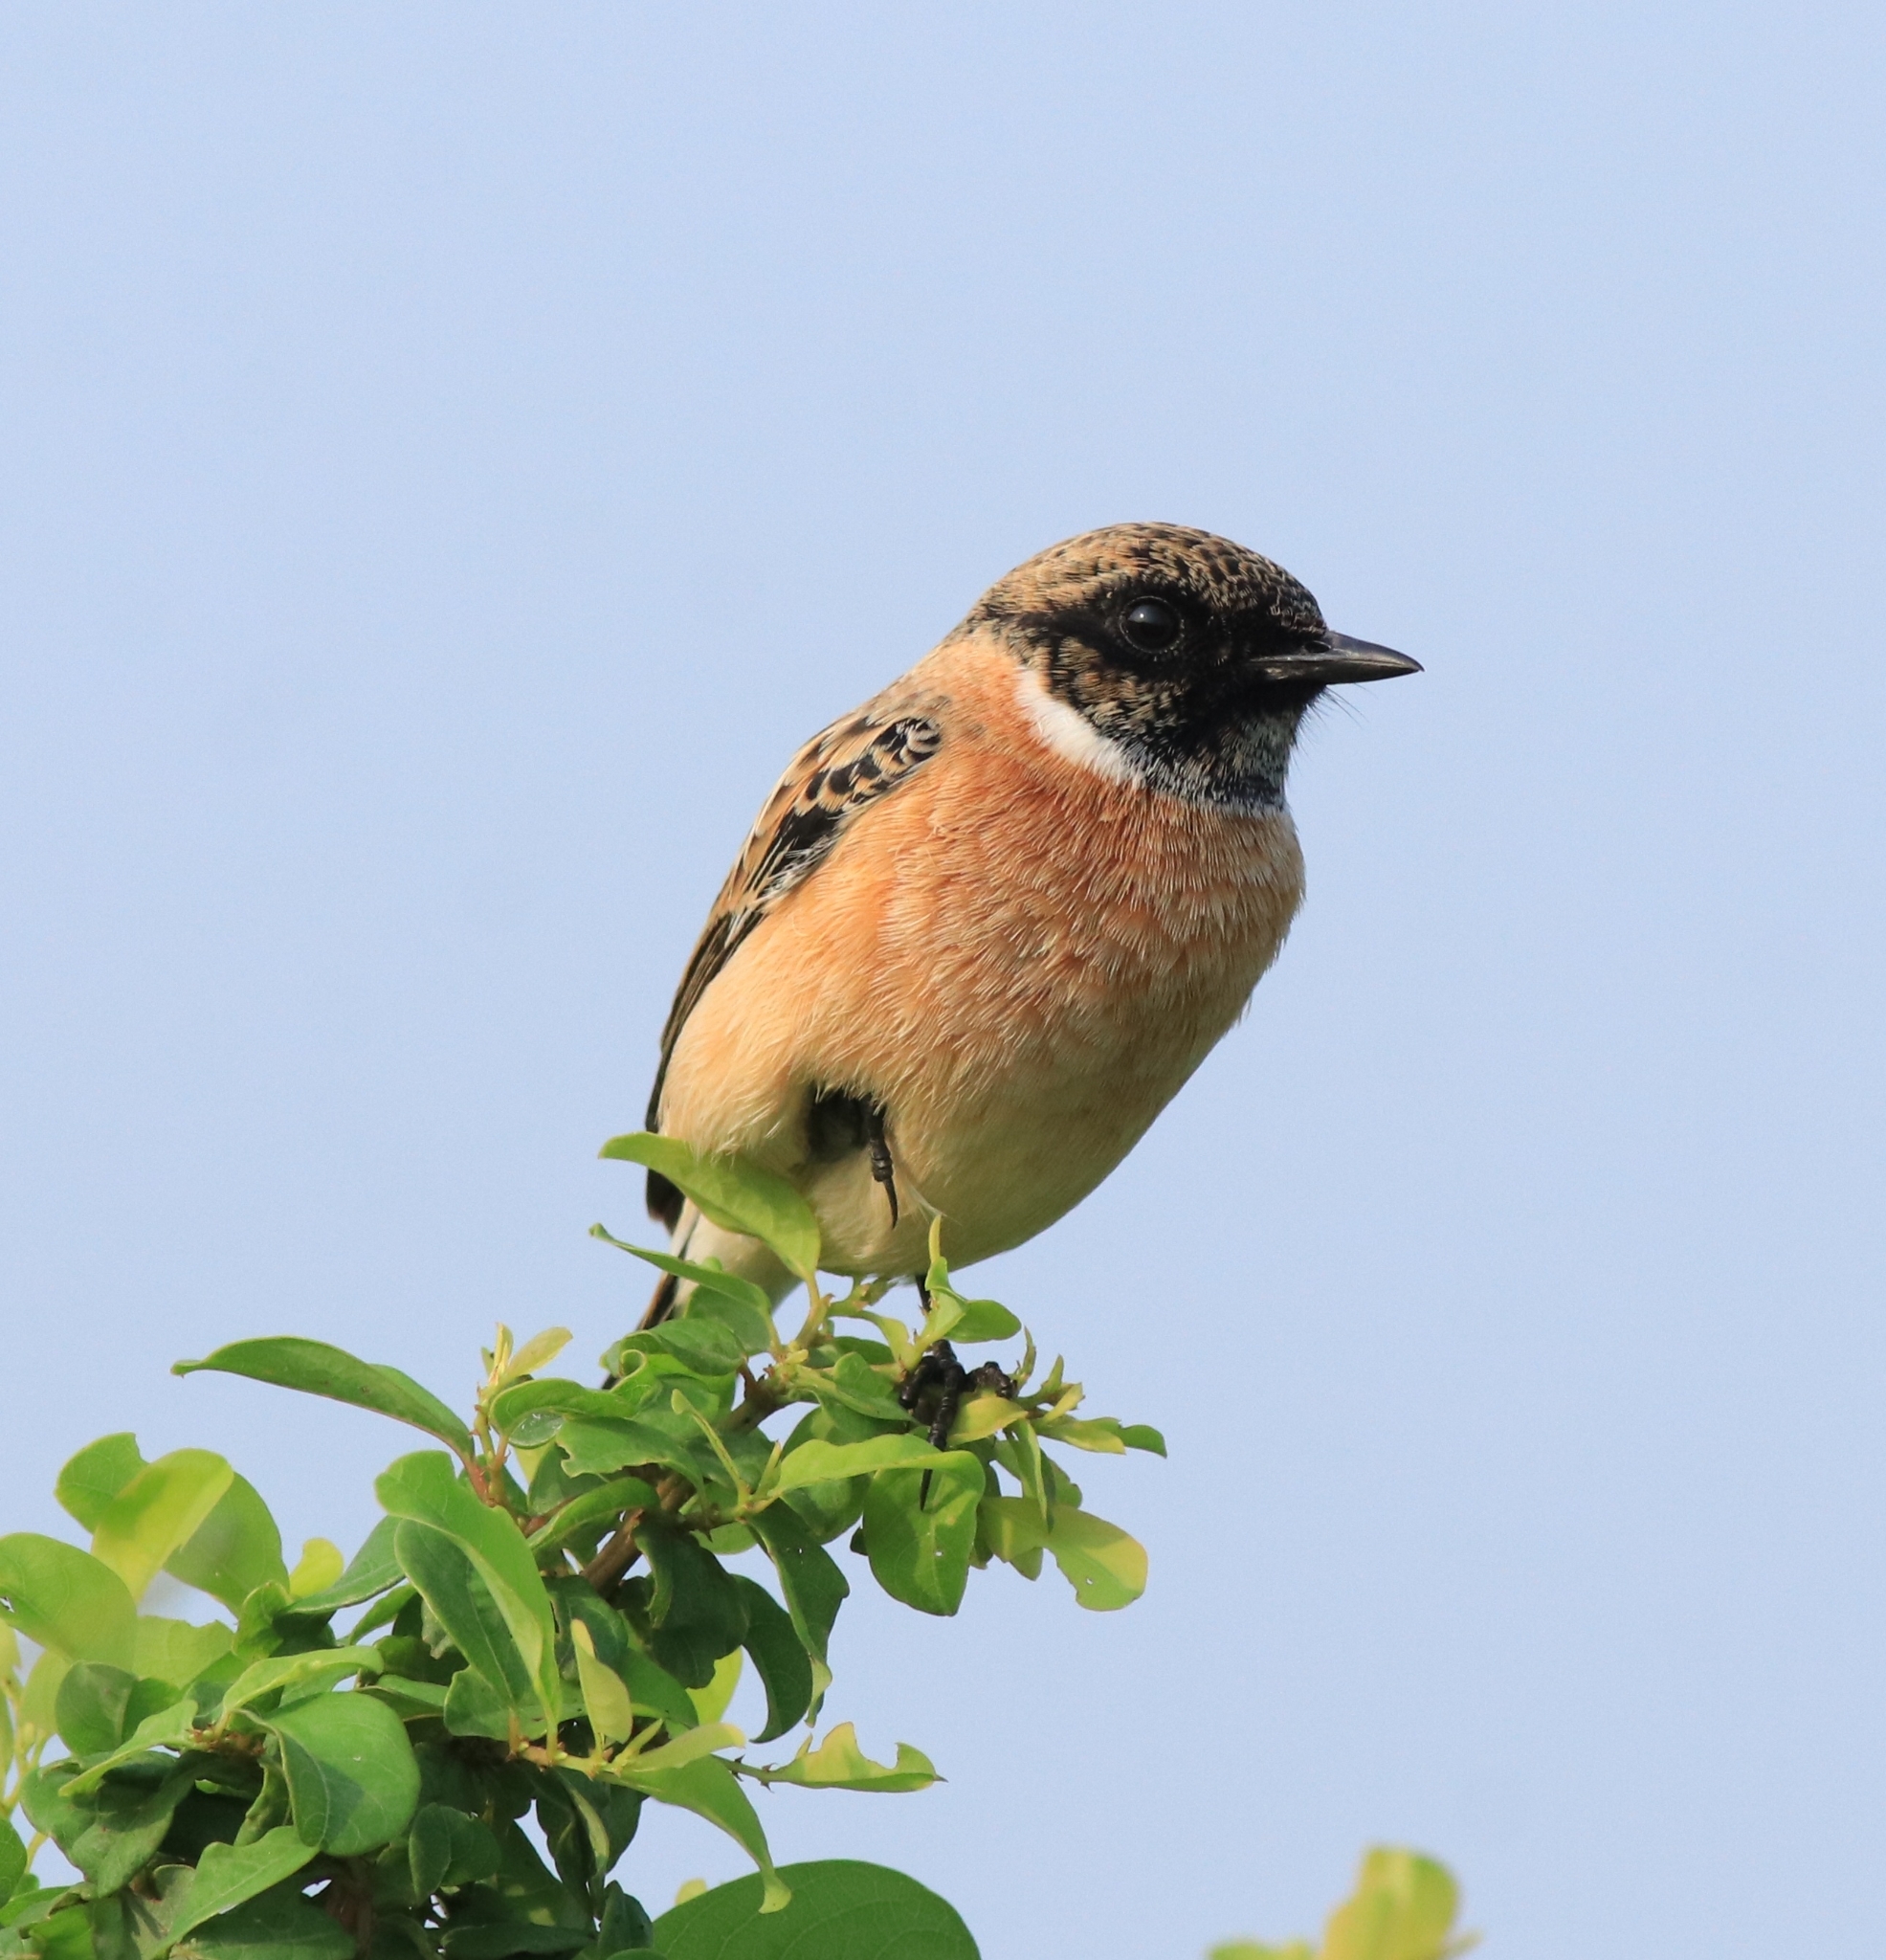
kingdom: Animalia
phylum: Chordata
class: Aves
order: Passeriformes
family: Muscicapidae
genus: Saxicola
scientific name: Saxicola maurus
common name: Siberian stonechat
